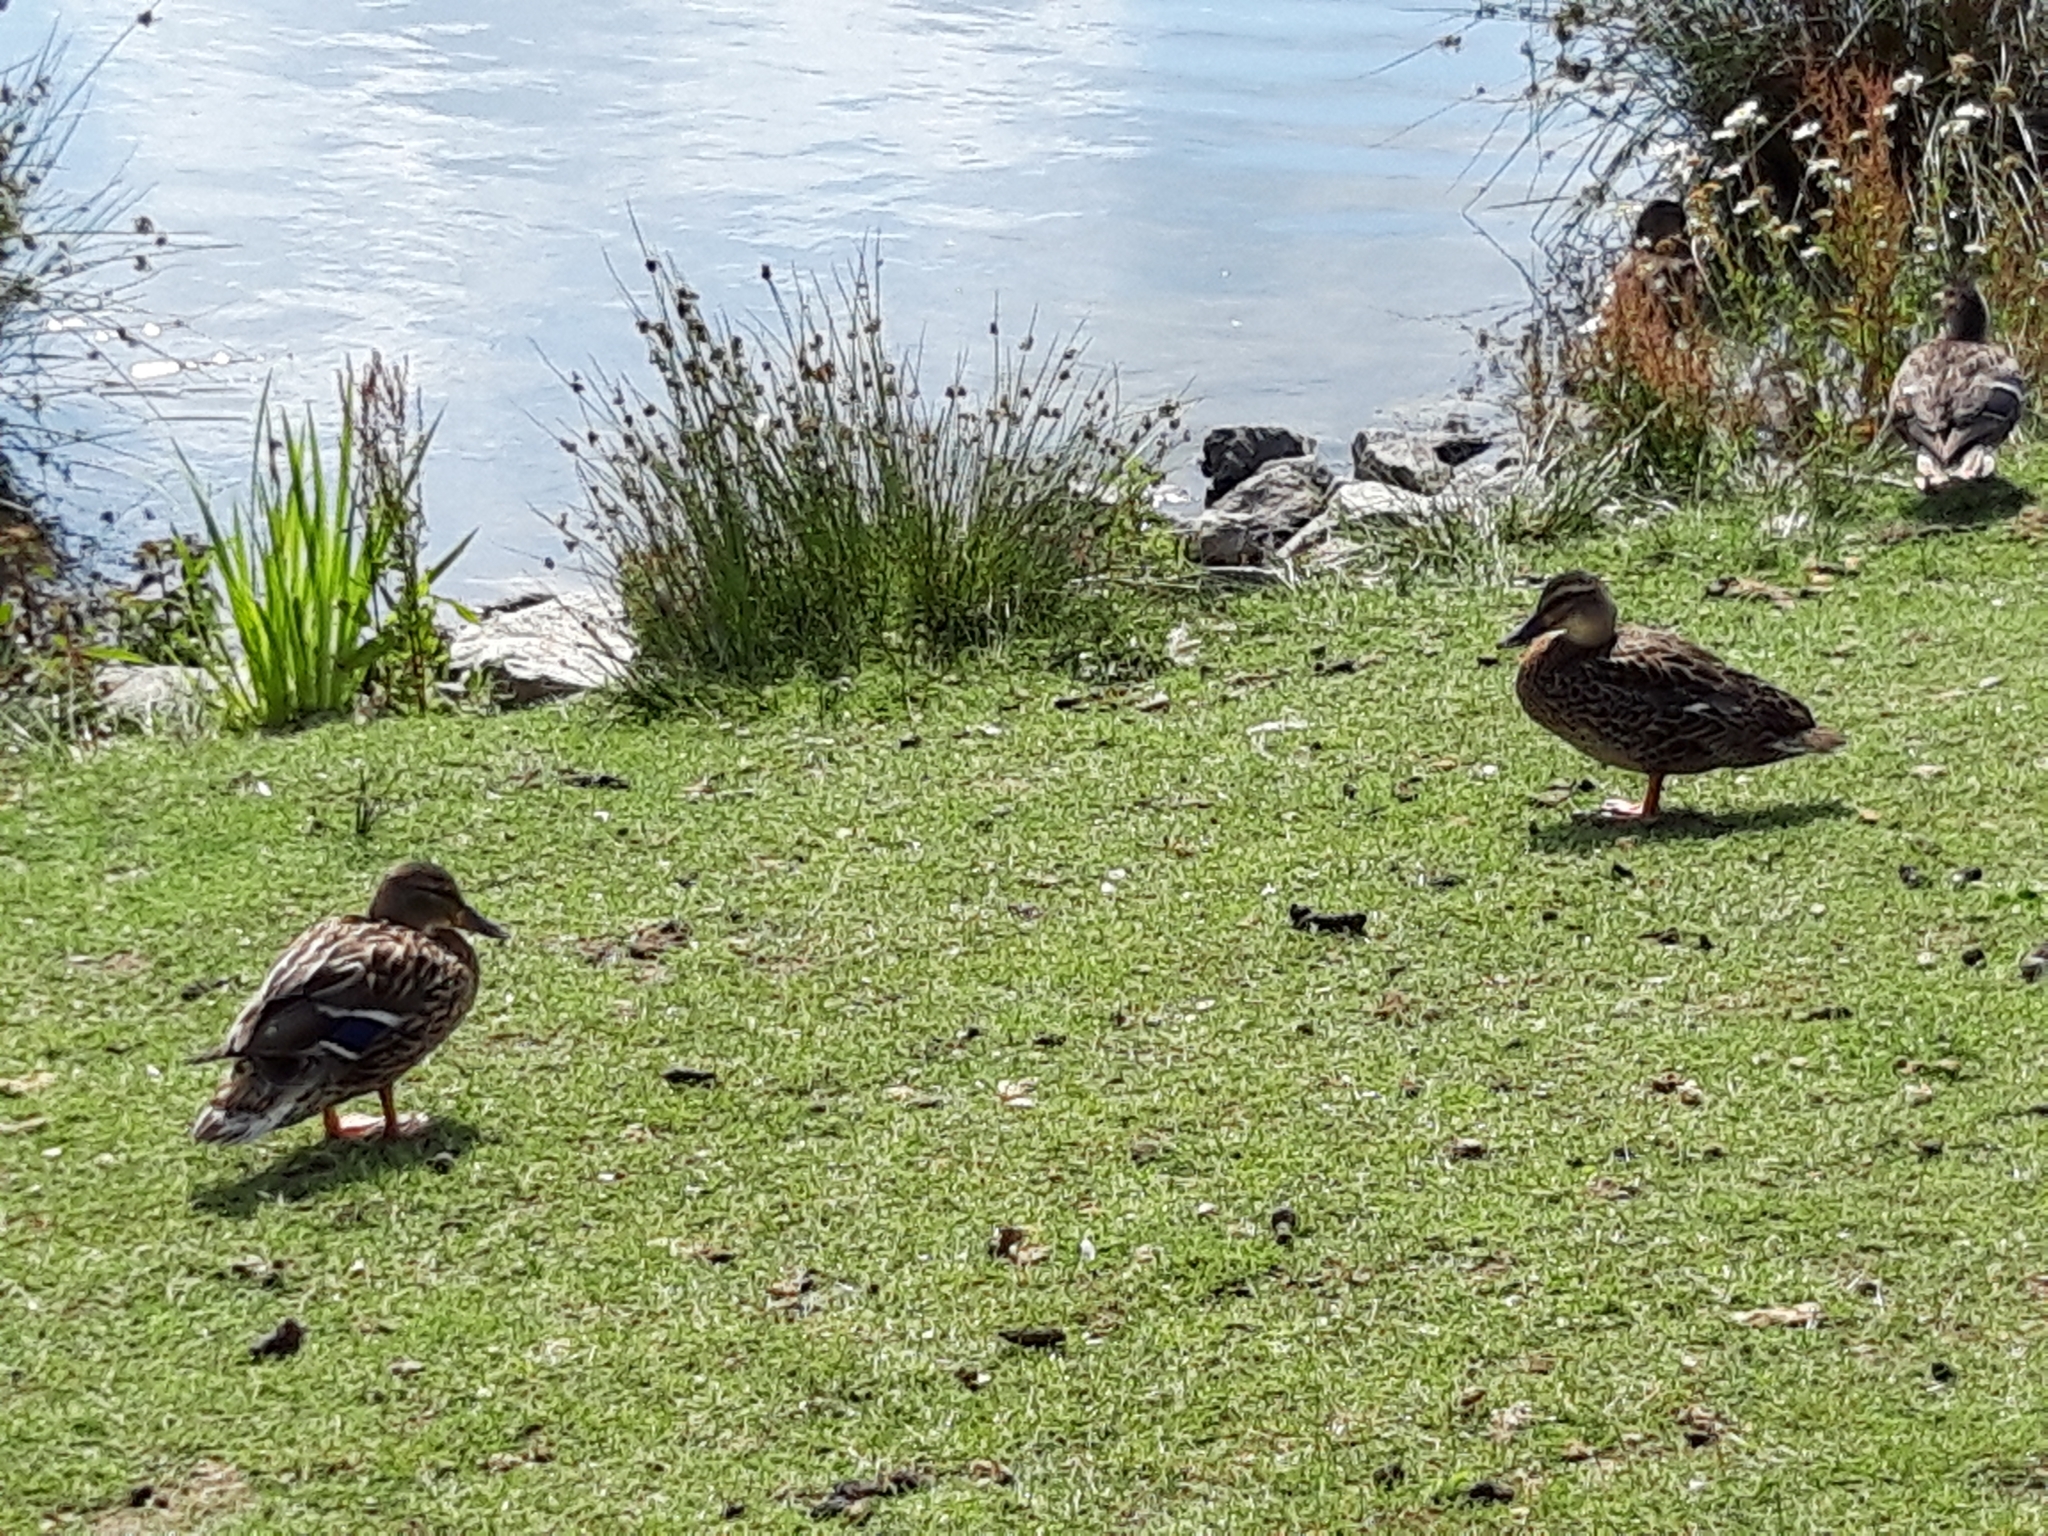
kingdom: Animalia
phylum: Chordata
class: Aves
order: Anseriformes
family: Anatidae
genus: Anas
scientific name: Anas platyrhynchos
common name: Mallard
